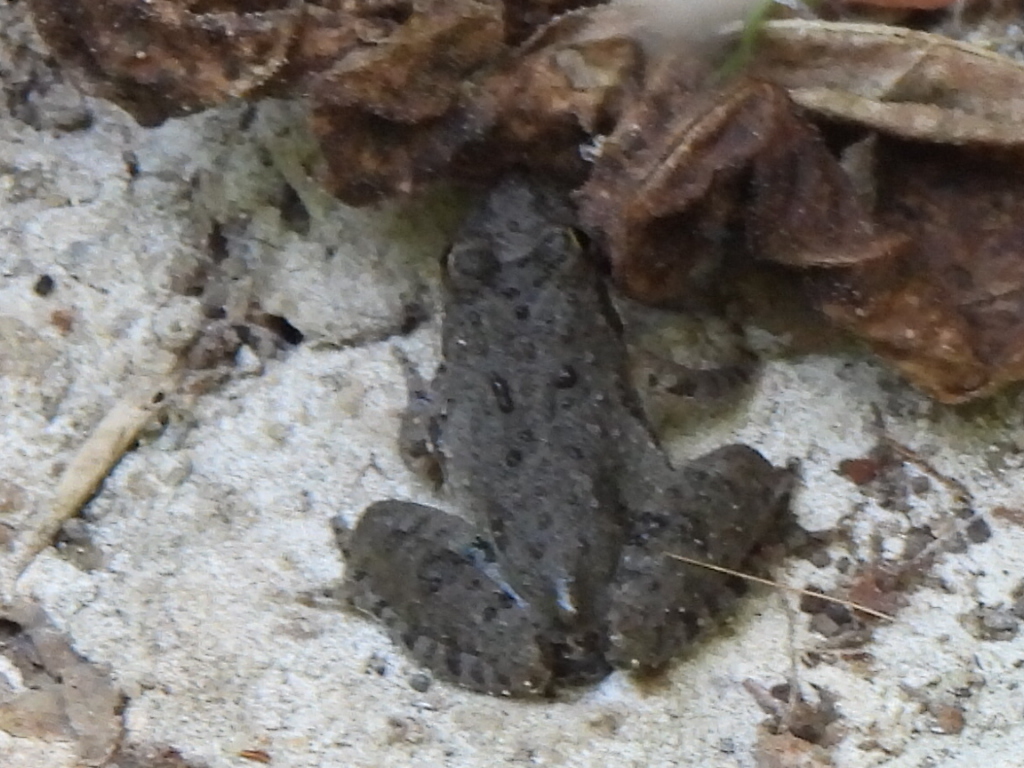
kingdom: Animalia
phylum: Chordata
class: Amphibia
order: Anura
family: Hylidae
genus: Acris
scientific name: Acris blanchardi
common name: Blanchard's cricket frog
